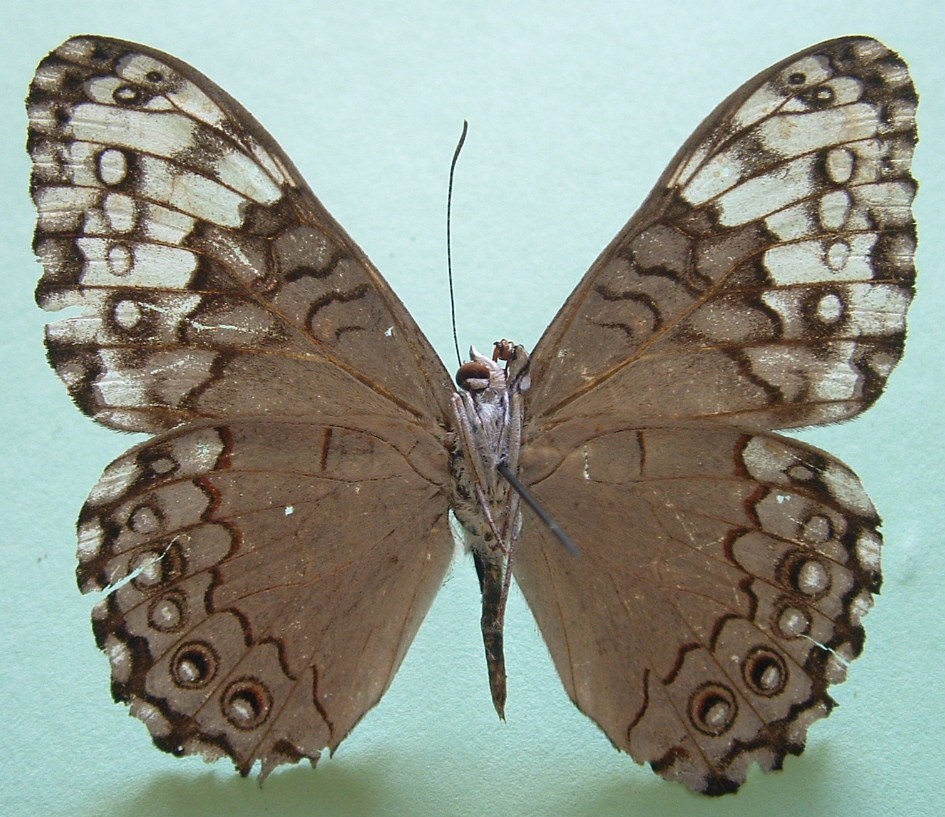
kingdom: Animalia
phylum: Arthropoda
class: Insecta
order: Lepidoptera
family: Nymphalidae
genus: Hamadryas
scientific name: Hamadryas glauconome
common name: Glaucous cracker
